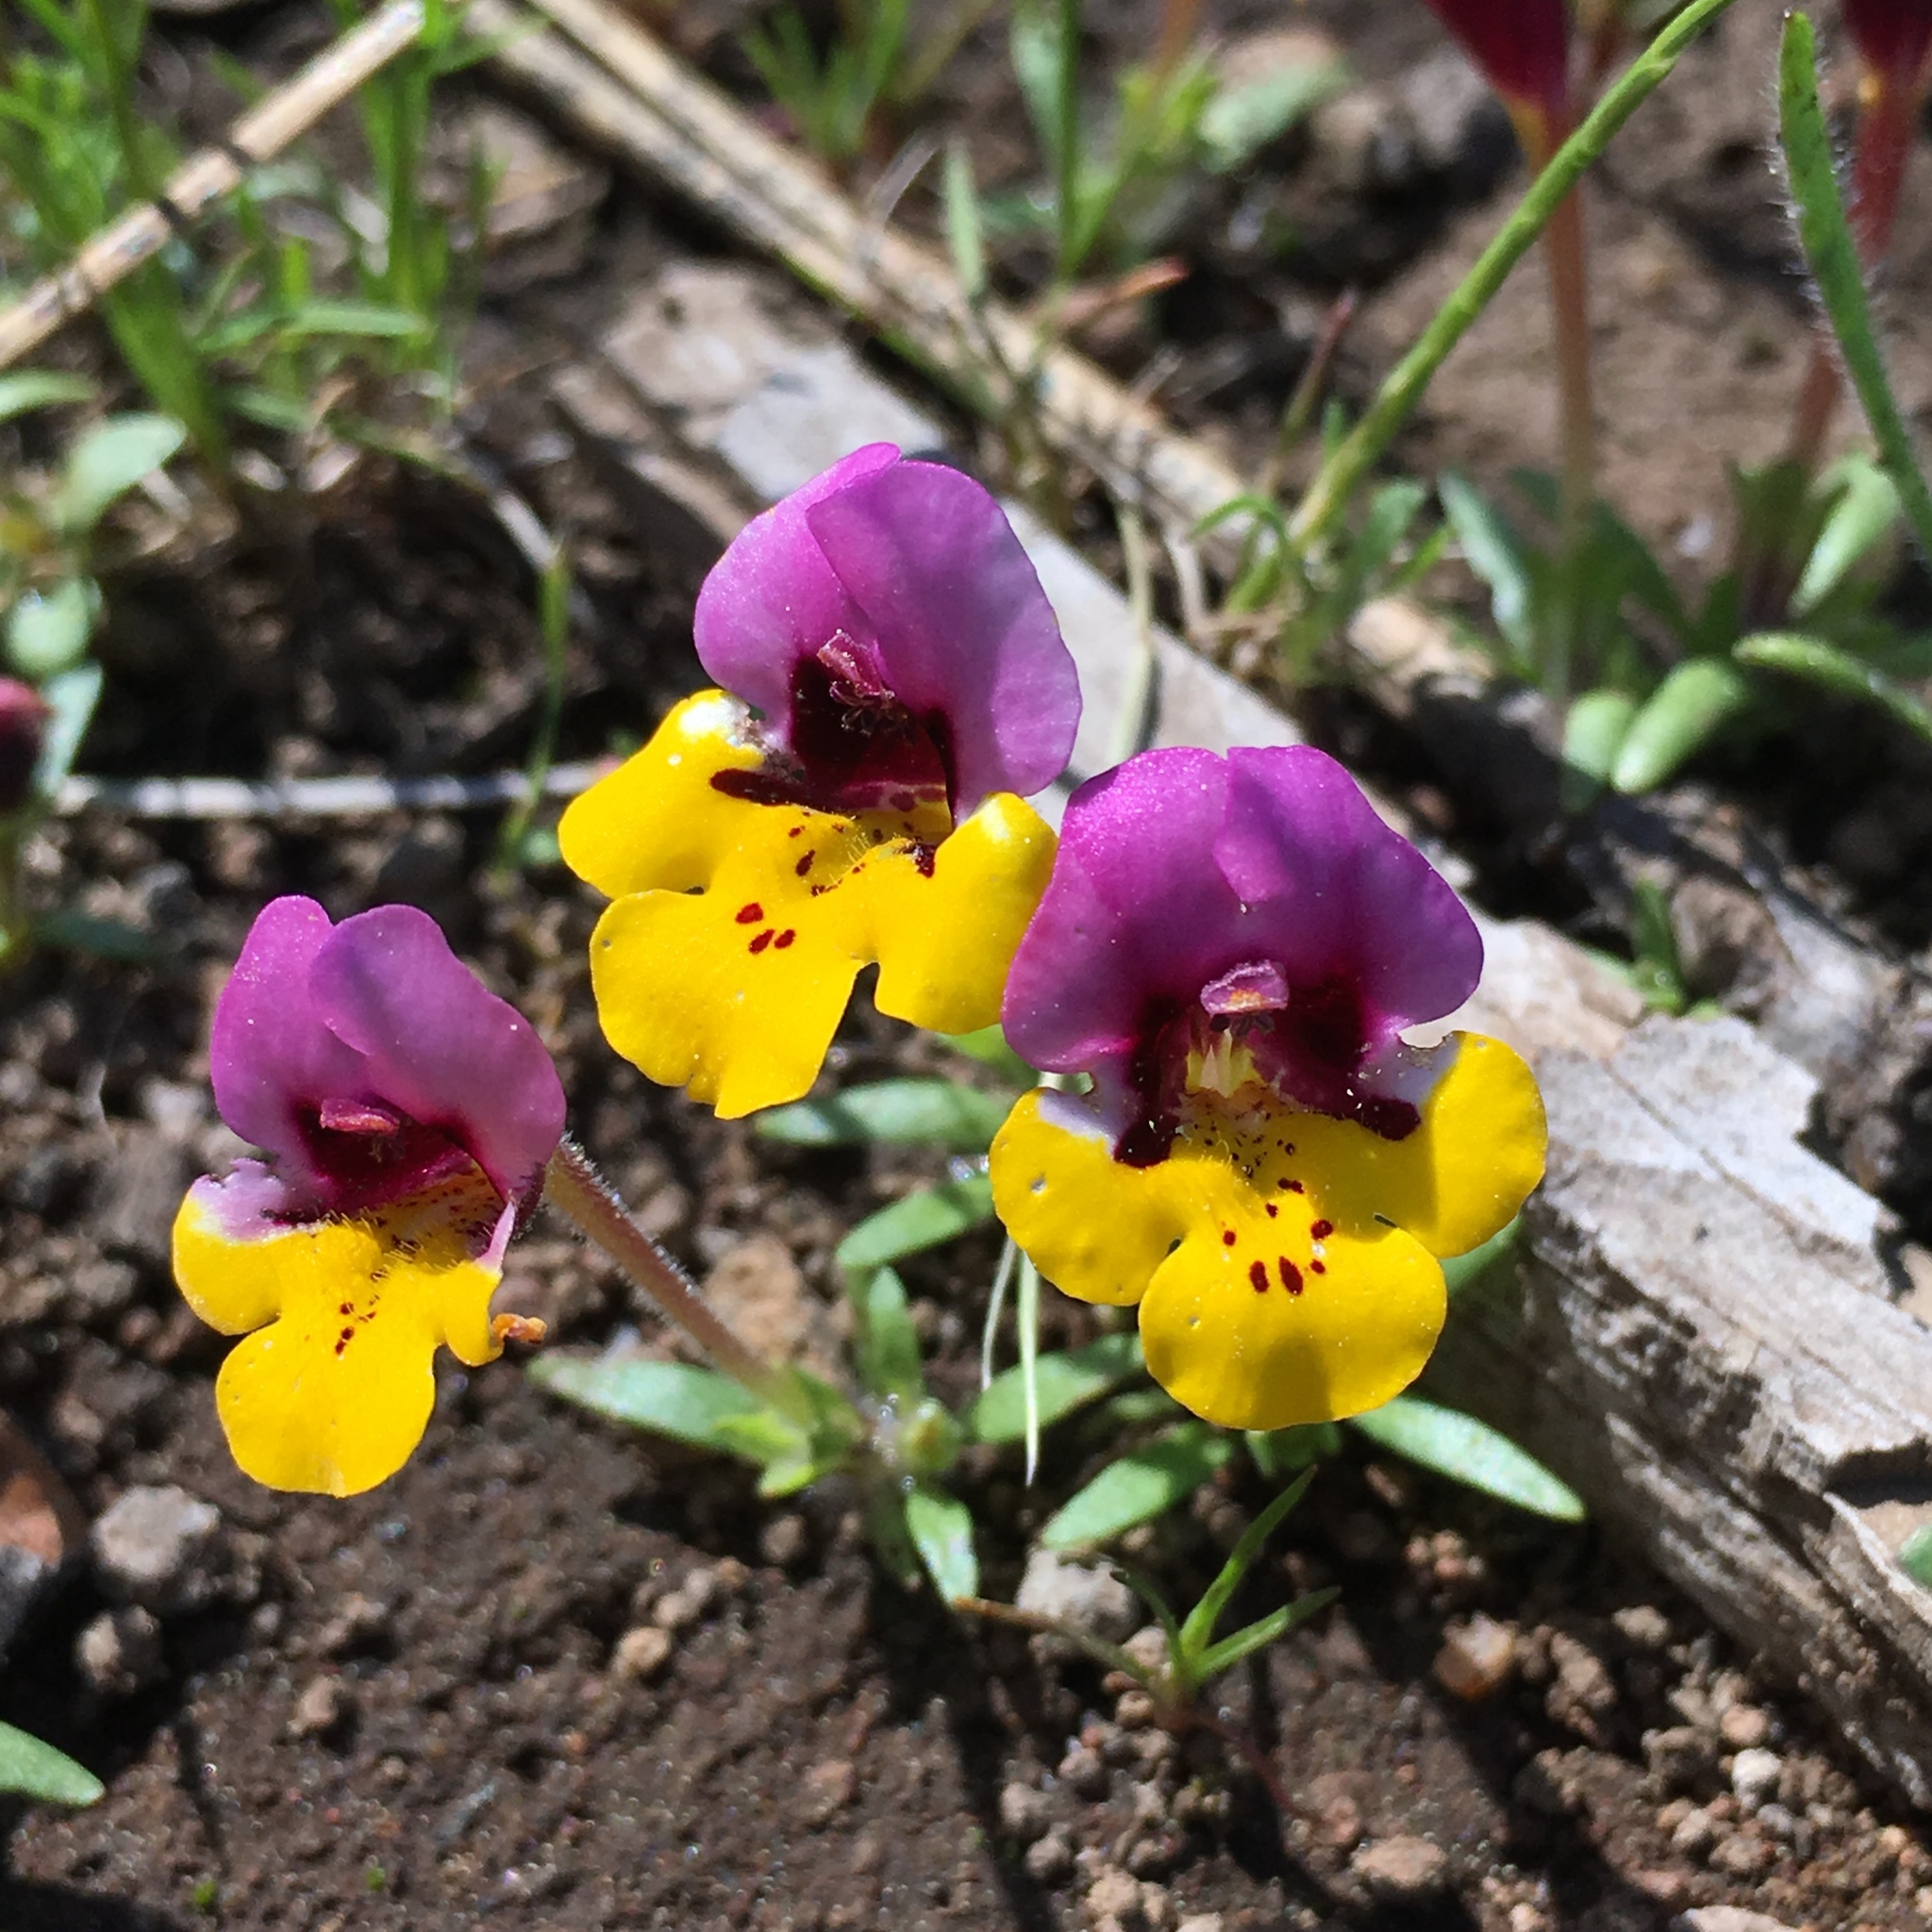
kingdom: Plantae
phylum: Tracheophyta
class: Magnoliopsida
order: Lamiales
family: Phrymaceae
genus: Diplacus
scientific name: Diplacus pulchellus
